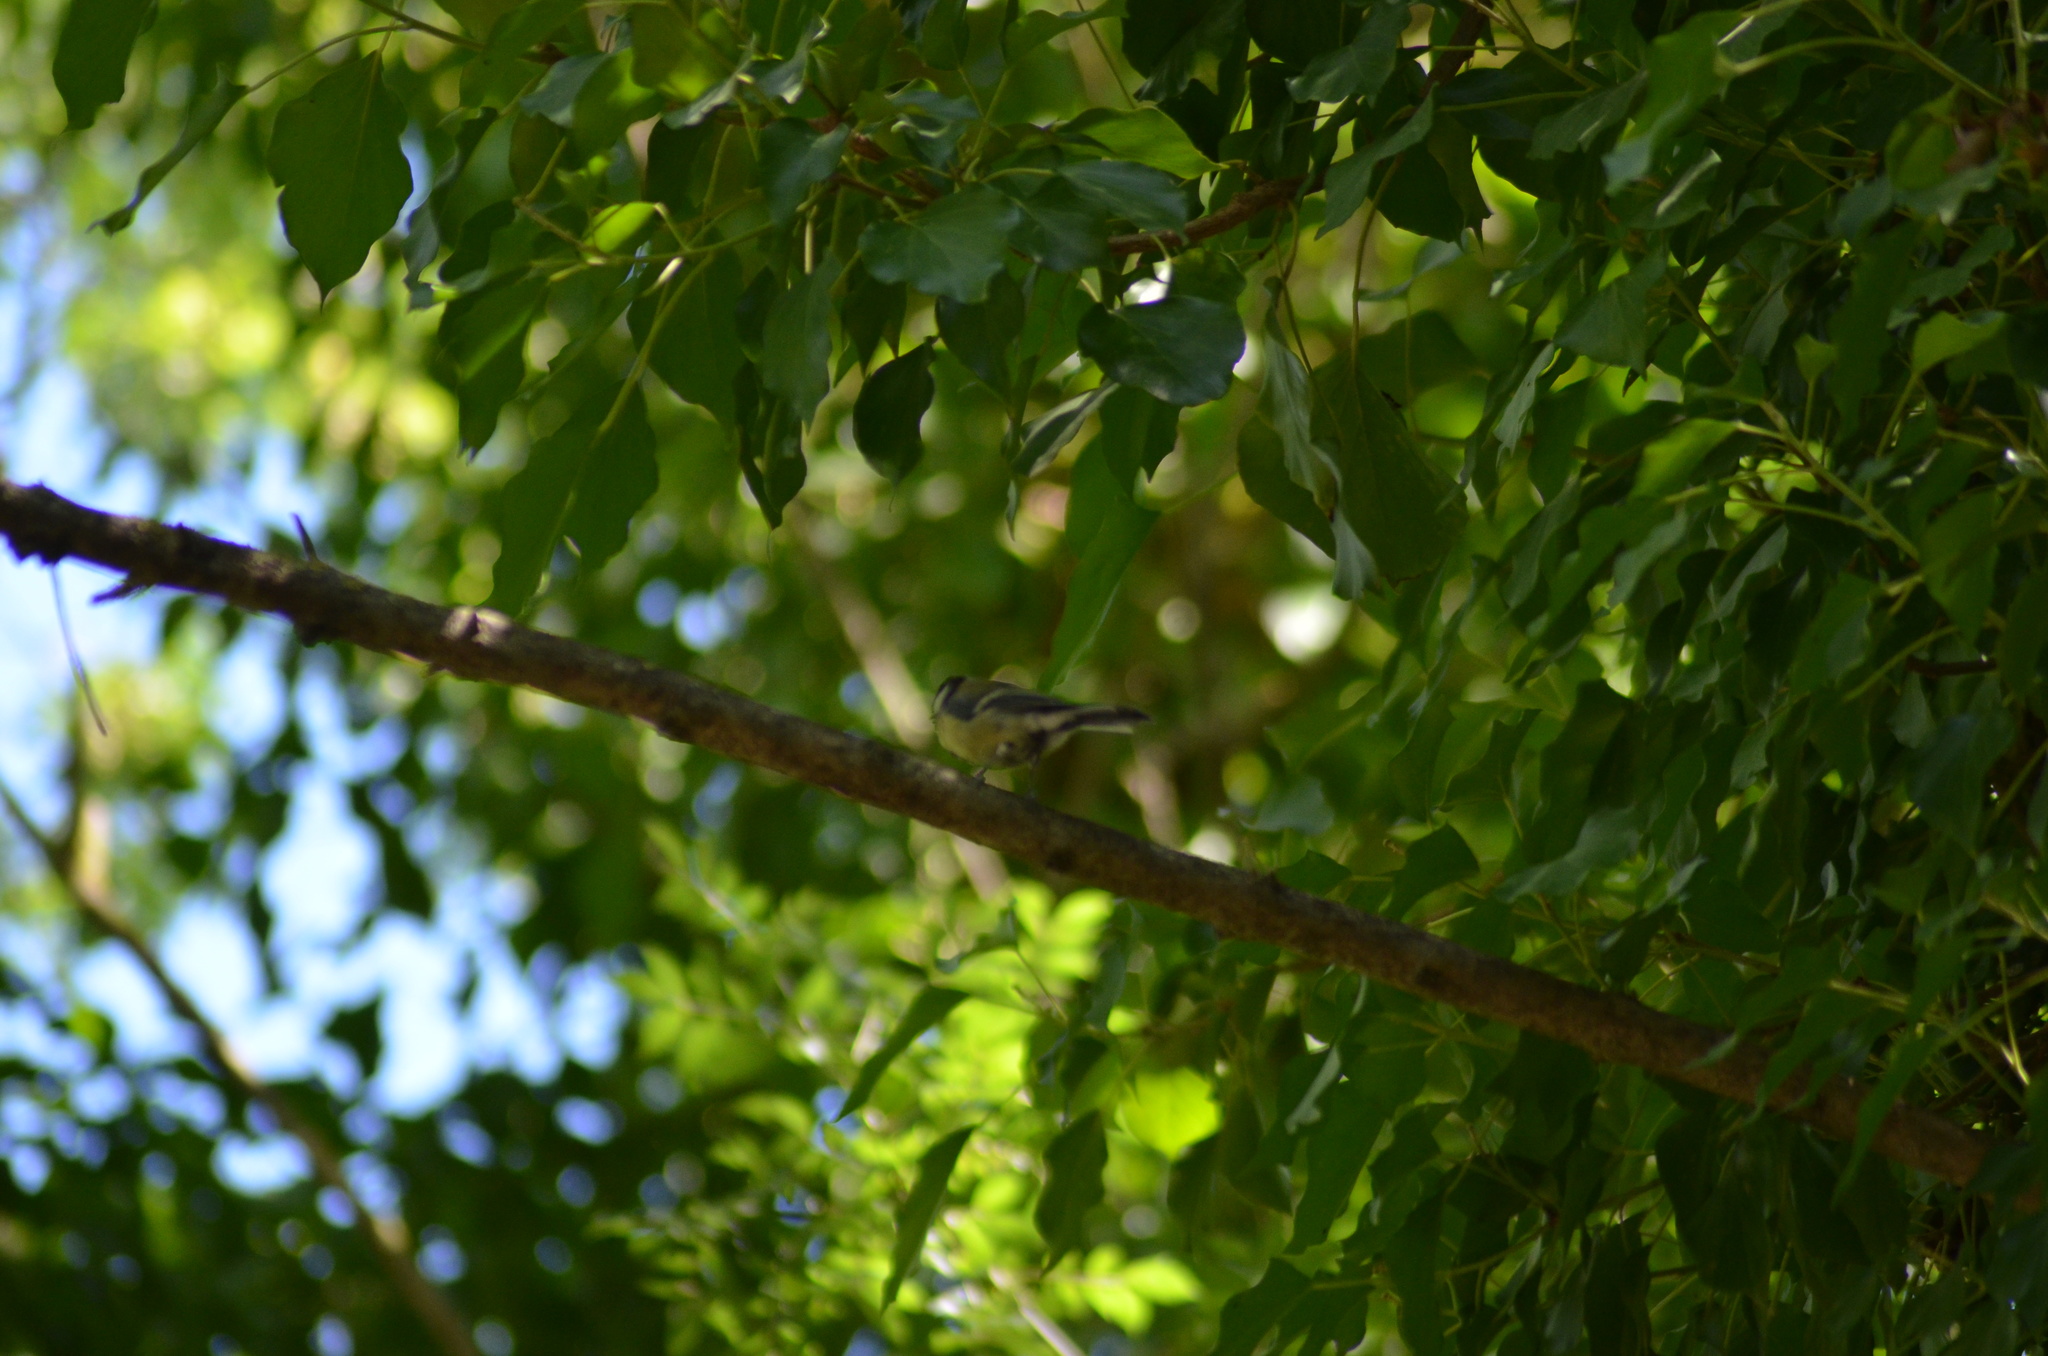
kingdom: Animalia
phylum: Chordata
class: Aves
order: Passeriformes
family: Paridae
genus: Parus
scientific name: Parus major
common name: Great tit
